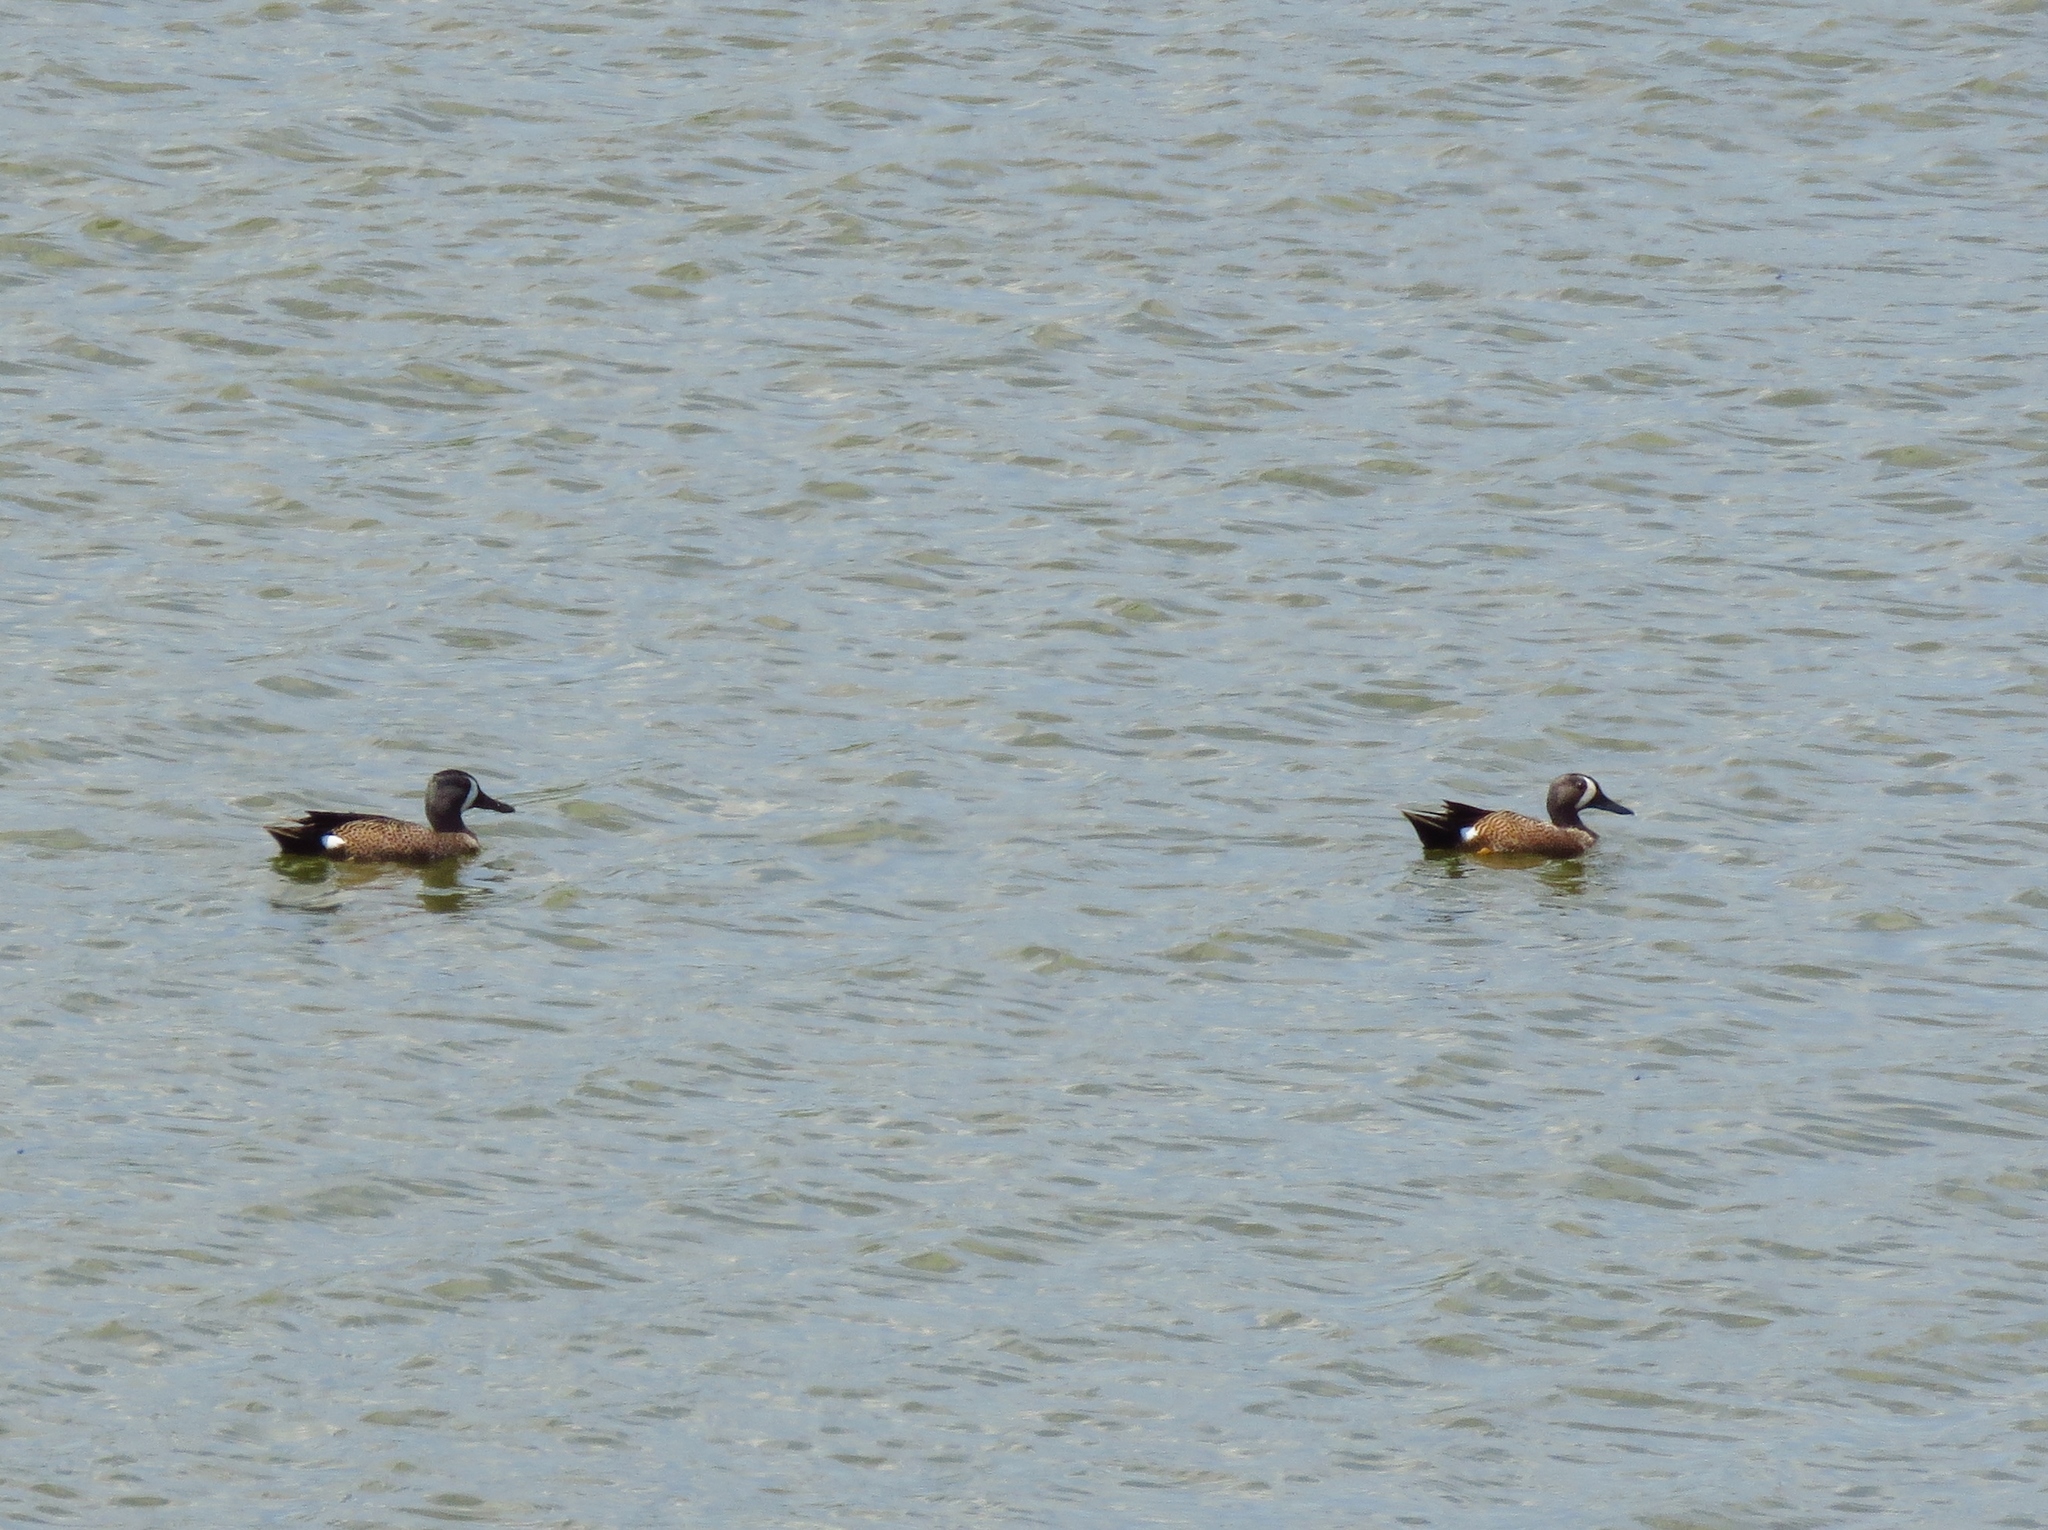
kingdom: Animalia
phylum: Chordata
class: Aves
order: Anseriformes
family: Anatidae
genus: Spatula
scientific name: Spatula discors
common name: Blue-winged teal
